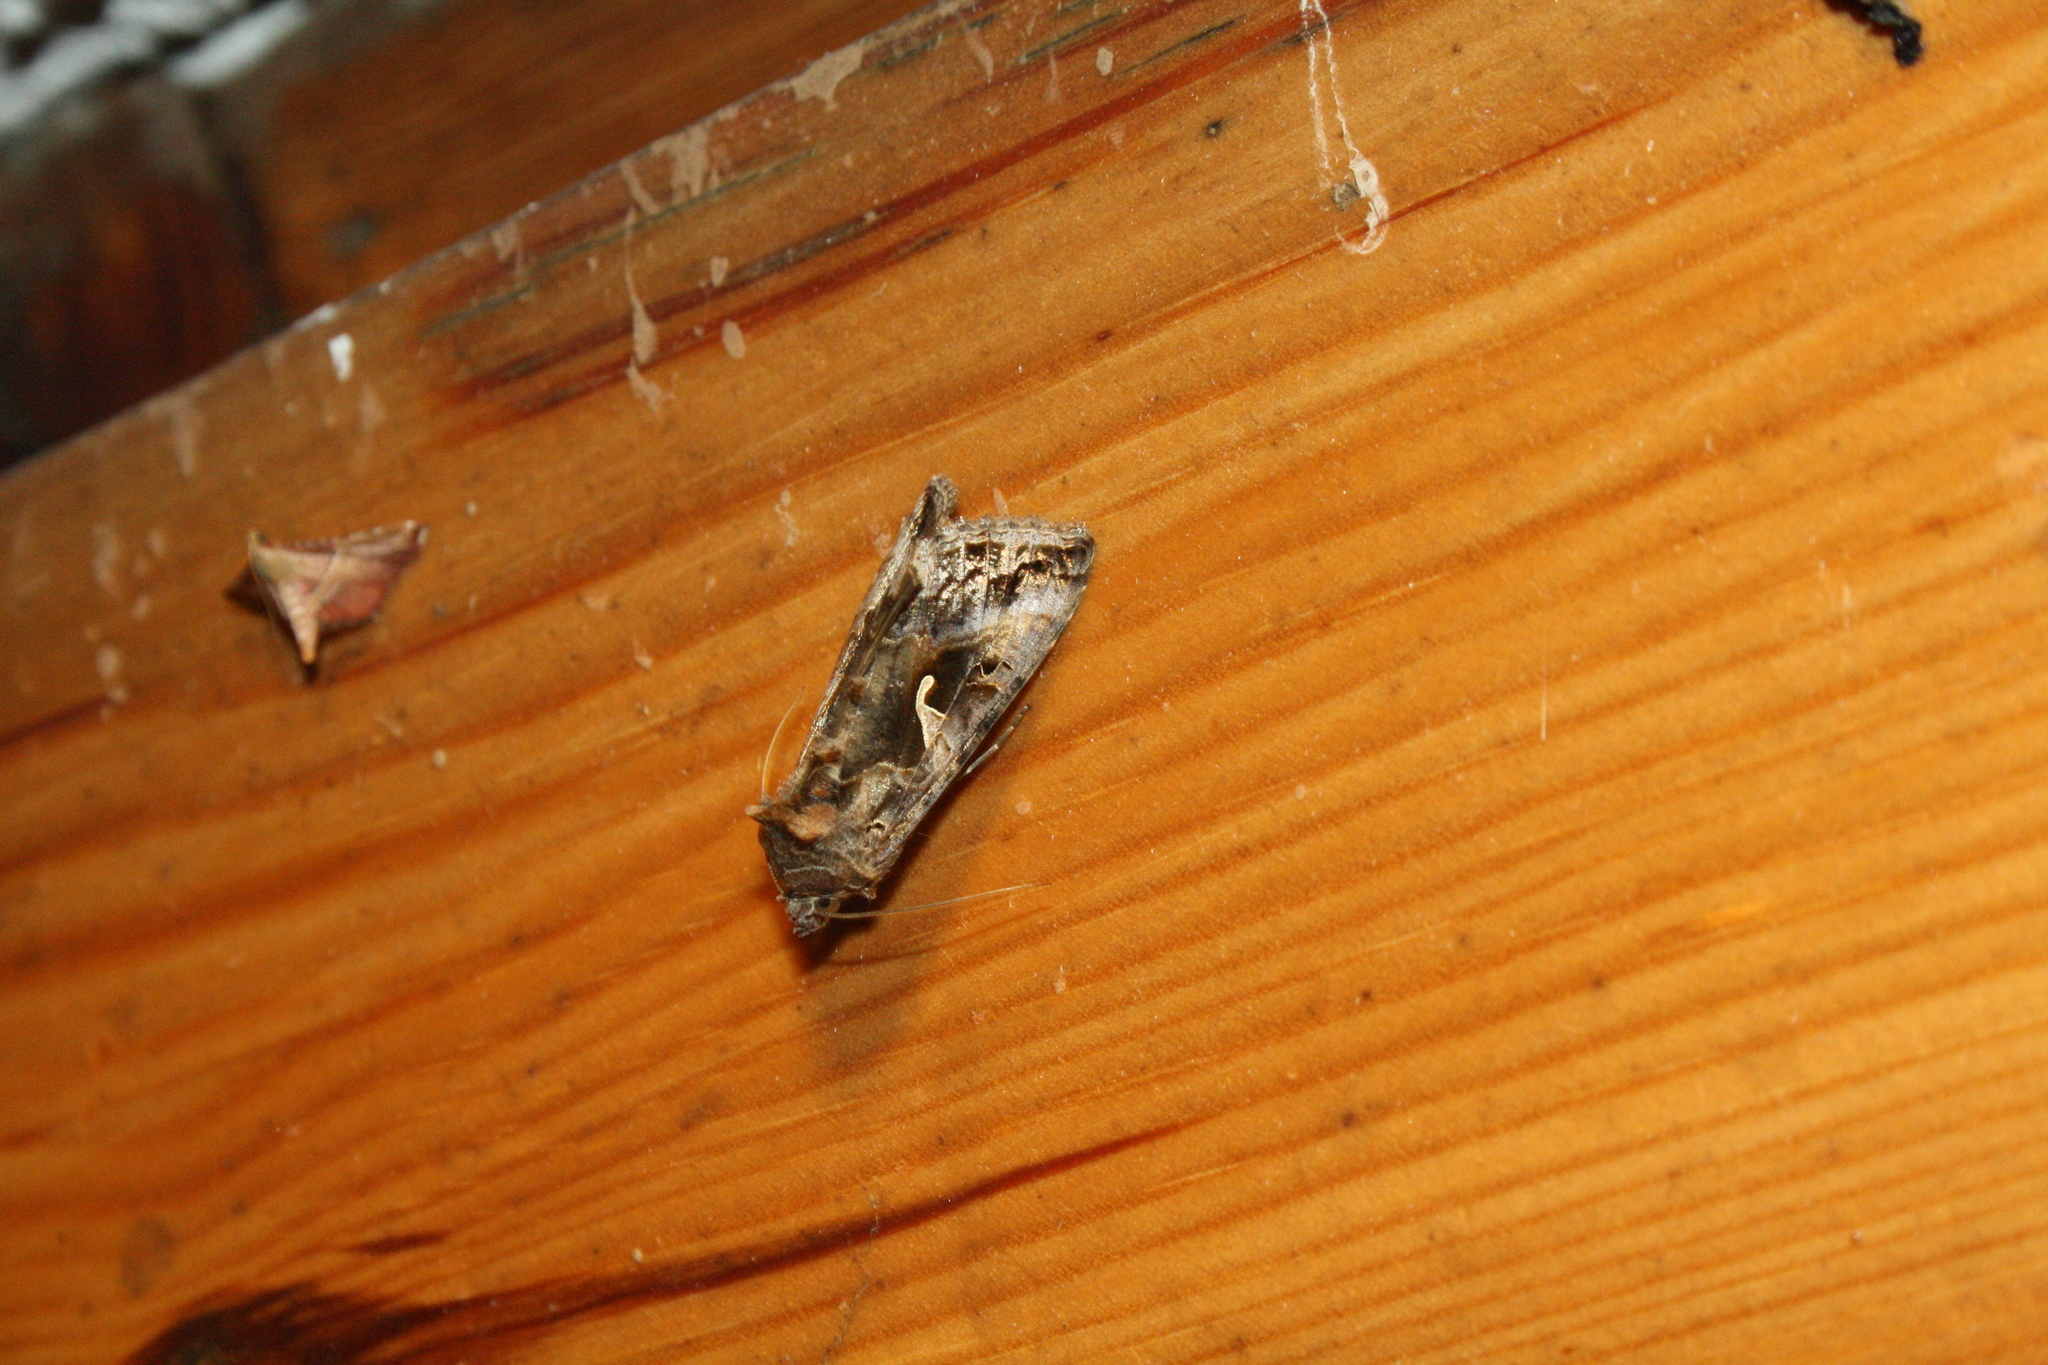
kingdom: Animalia
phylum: Arthropoda
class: Insecta
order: Lepidoptera
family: Noctuidae
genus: Autographa
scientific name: Autographa gamma
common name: Silver y
